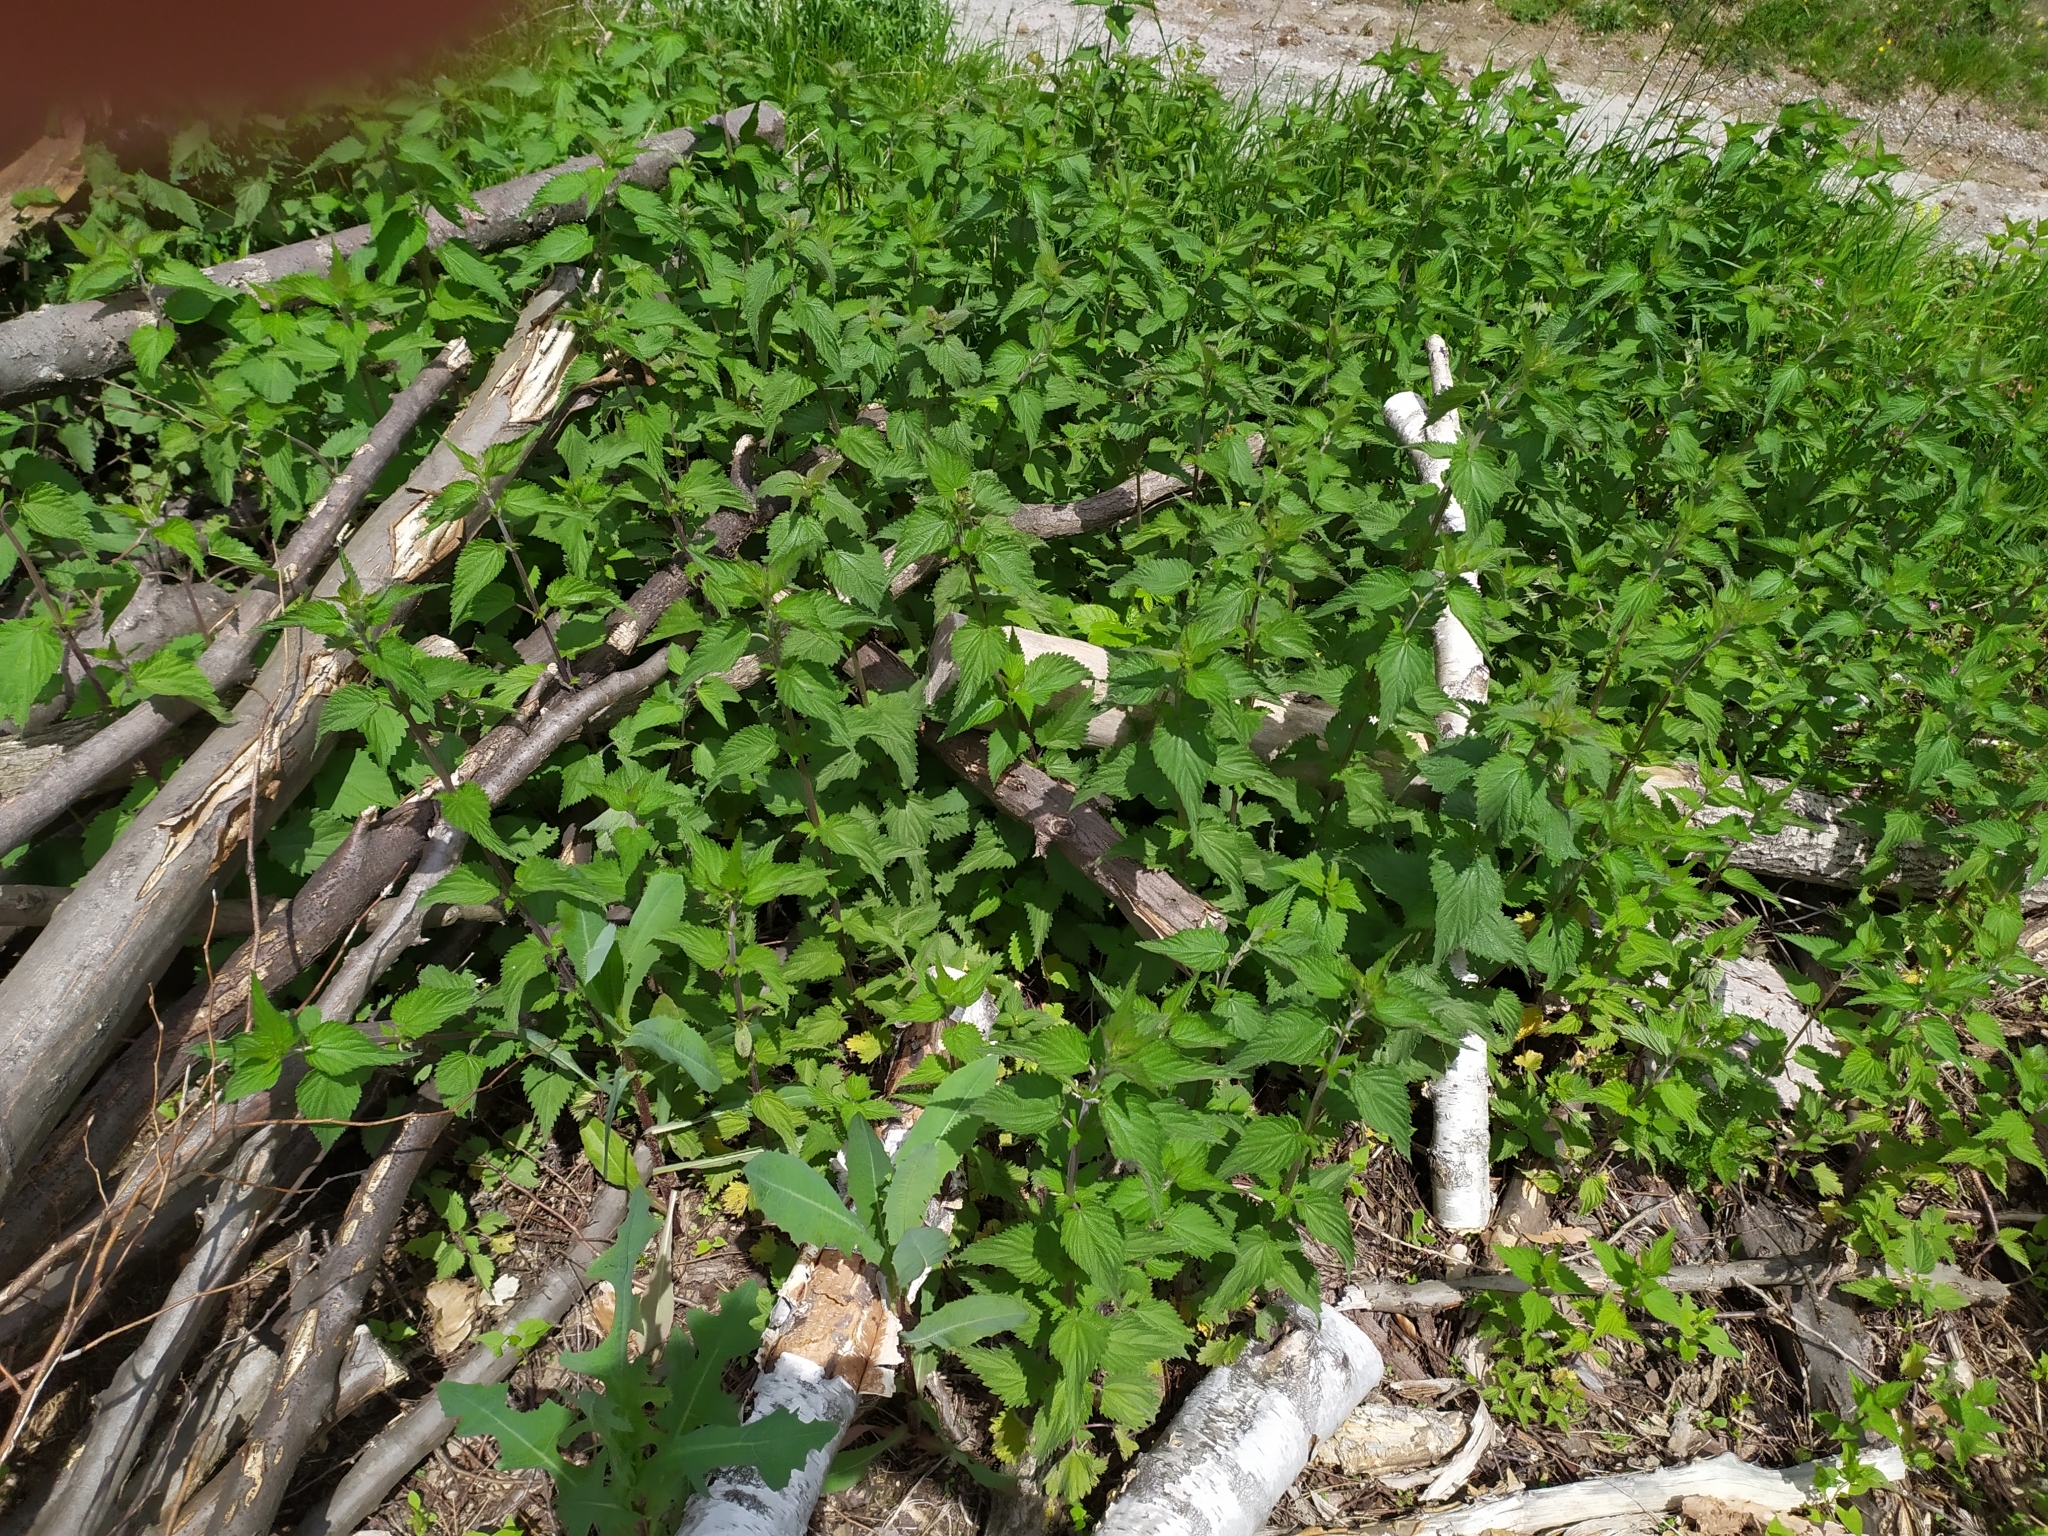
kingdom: Plantae
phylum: Tracheophyta
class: Magnoliopsida
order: Rosales
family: Urticaceae
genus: Urtica
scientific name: Urtica dioica
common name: Common nettle
